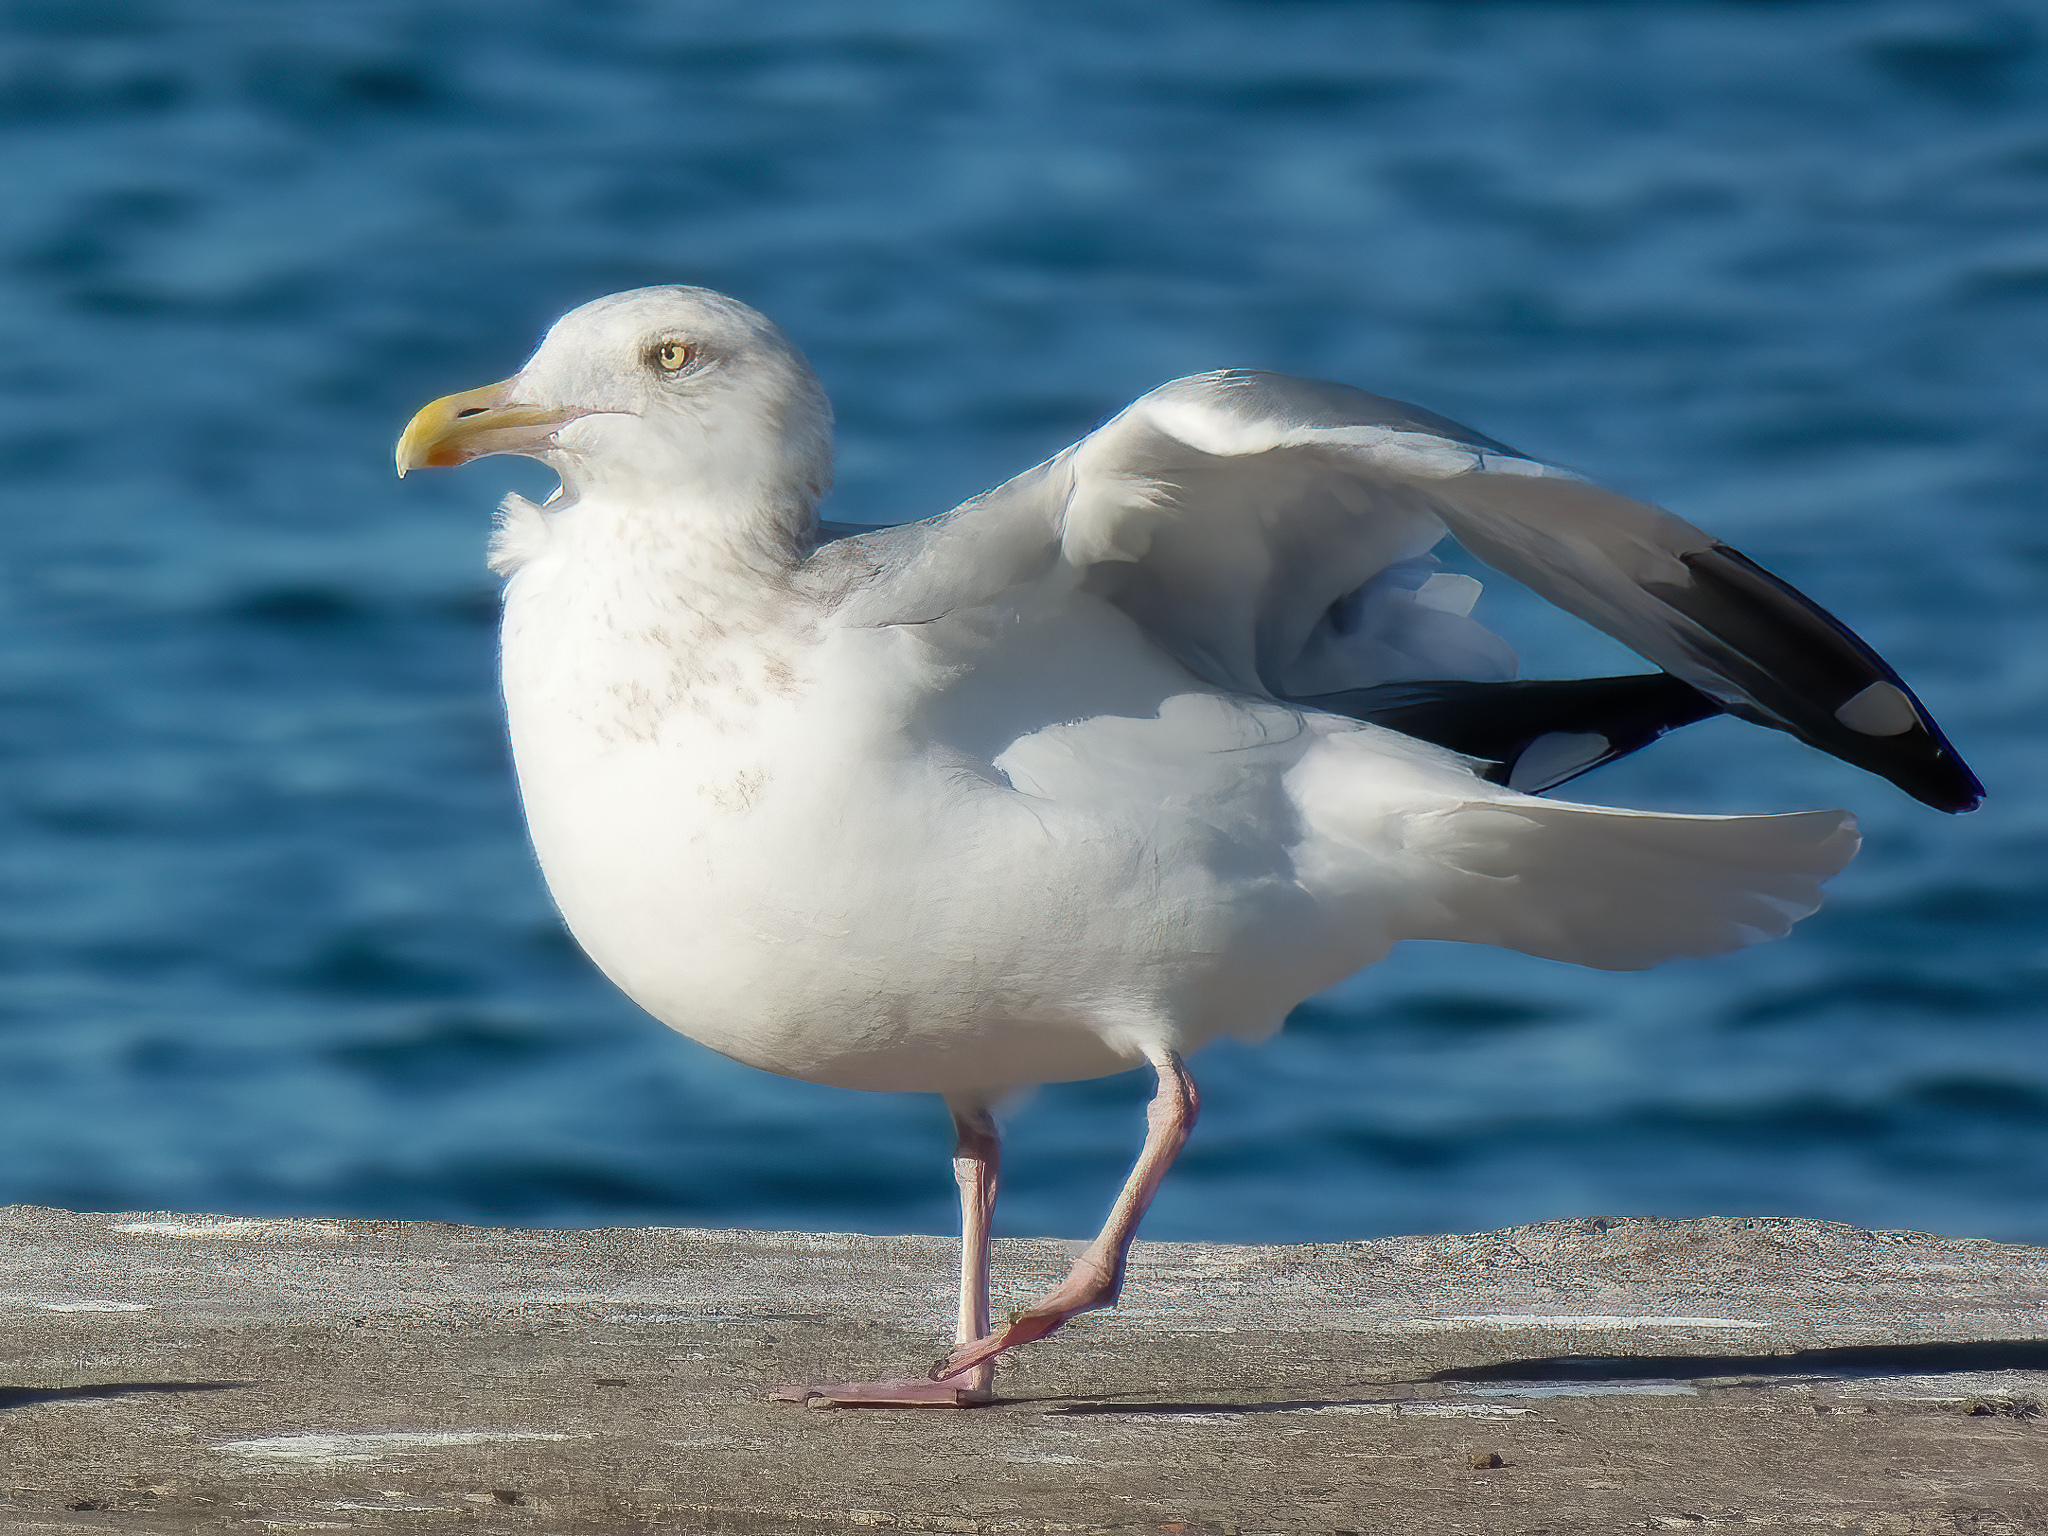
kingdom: Animalia
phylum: Chordata
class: Aves
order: Charadriiformes
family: Laridae
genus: Larus
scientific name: Larus argentatus
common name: Herring gull
